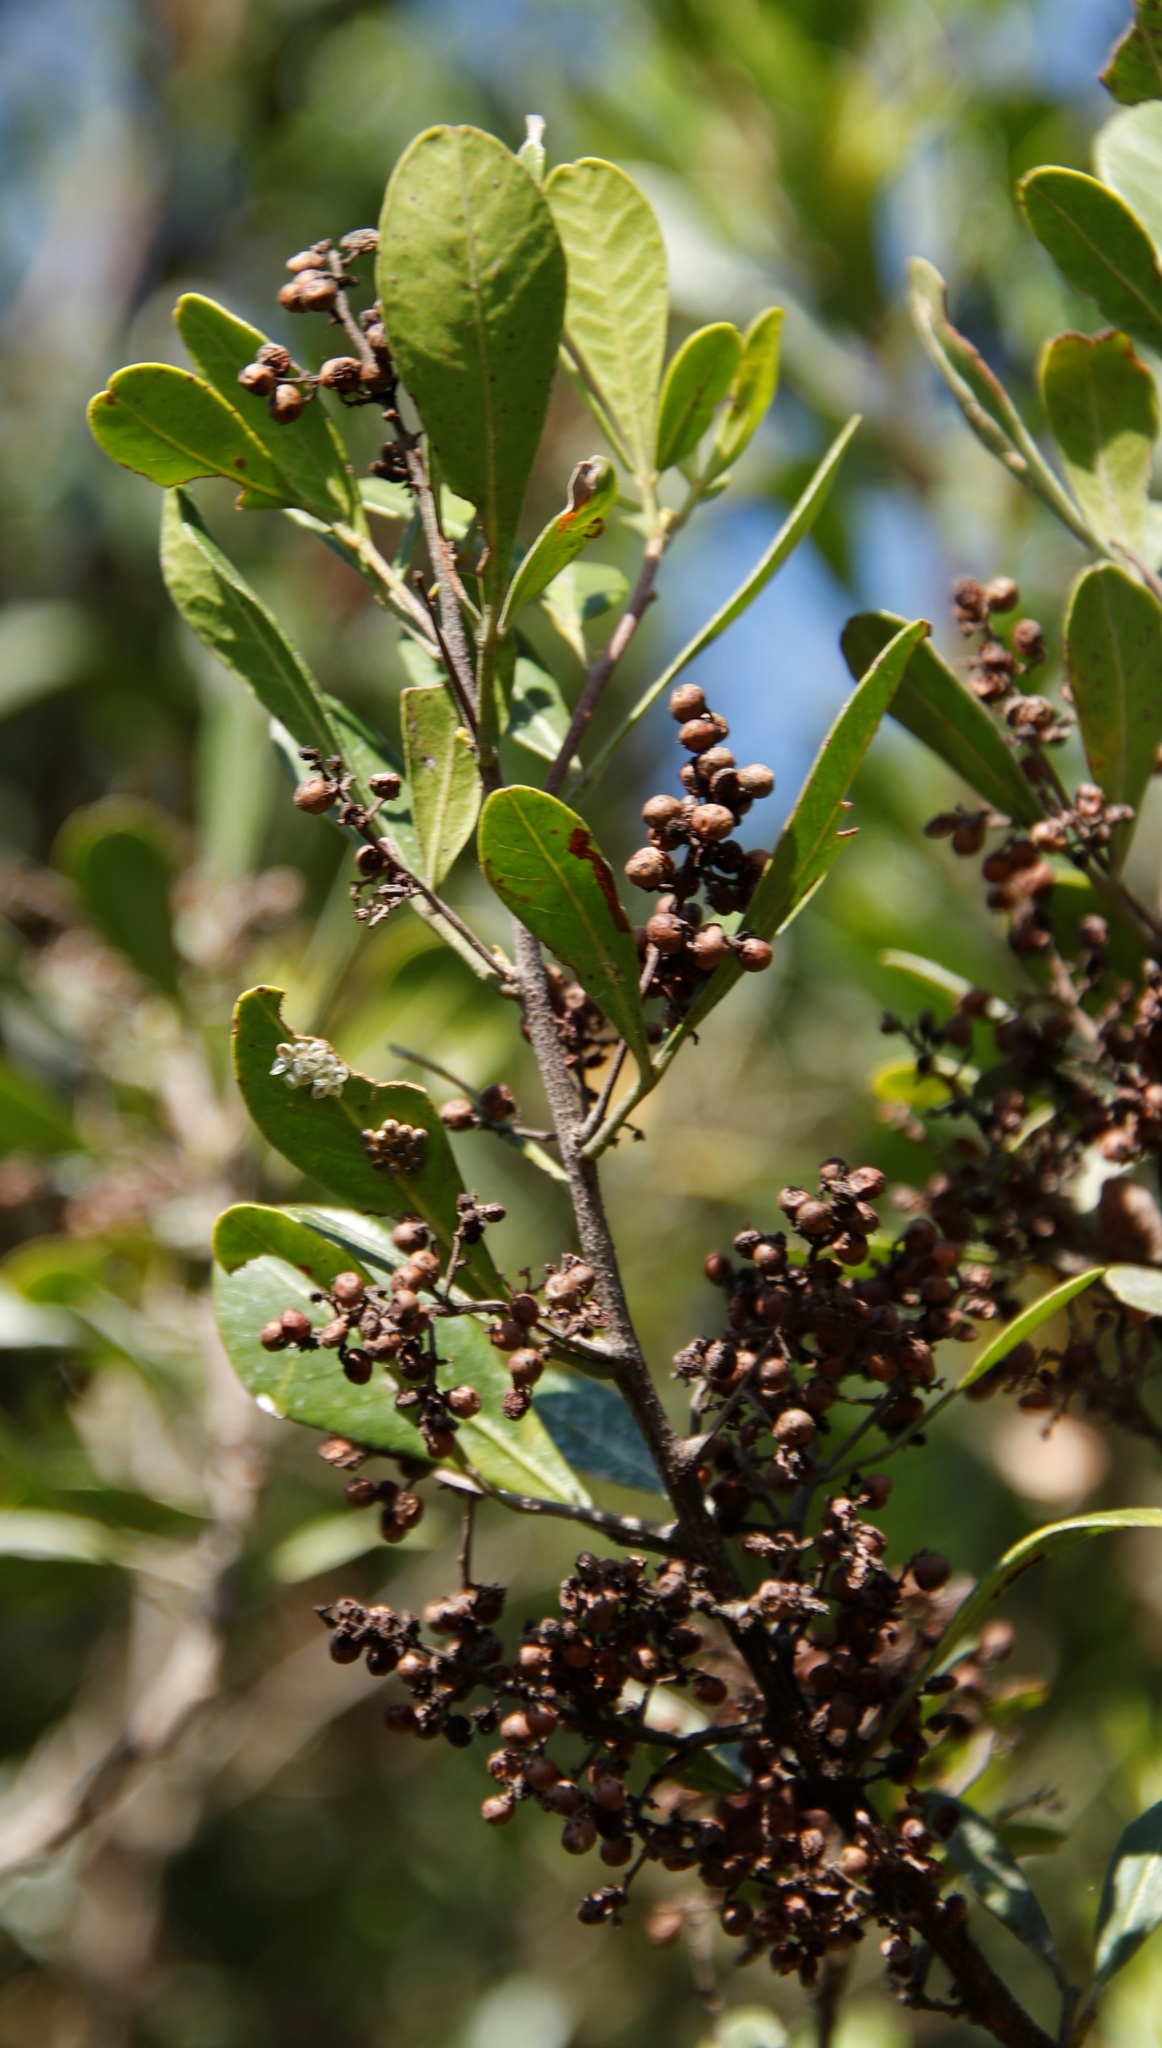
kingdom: Plantae
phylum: Tracheophyta
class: Magnoliopsida
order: Sapindales
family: Anacardiaceae
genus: Searsia
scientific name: Searsia lucida
